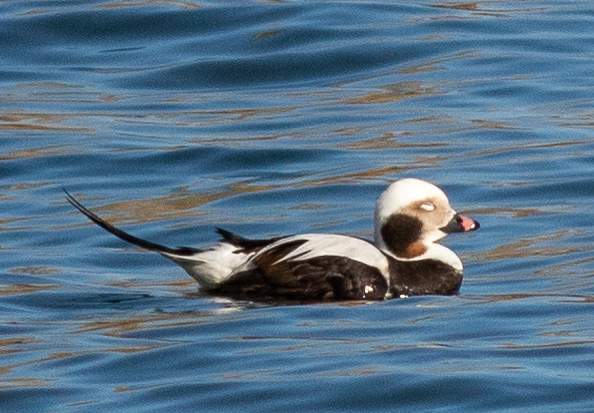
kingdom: Animalia
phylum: Chordata
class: Aves
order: Anseriformes
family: Anatidae
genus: Clangula
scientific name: Clangula hyemalis
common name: Long-tailed duck
